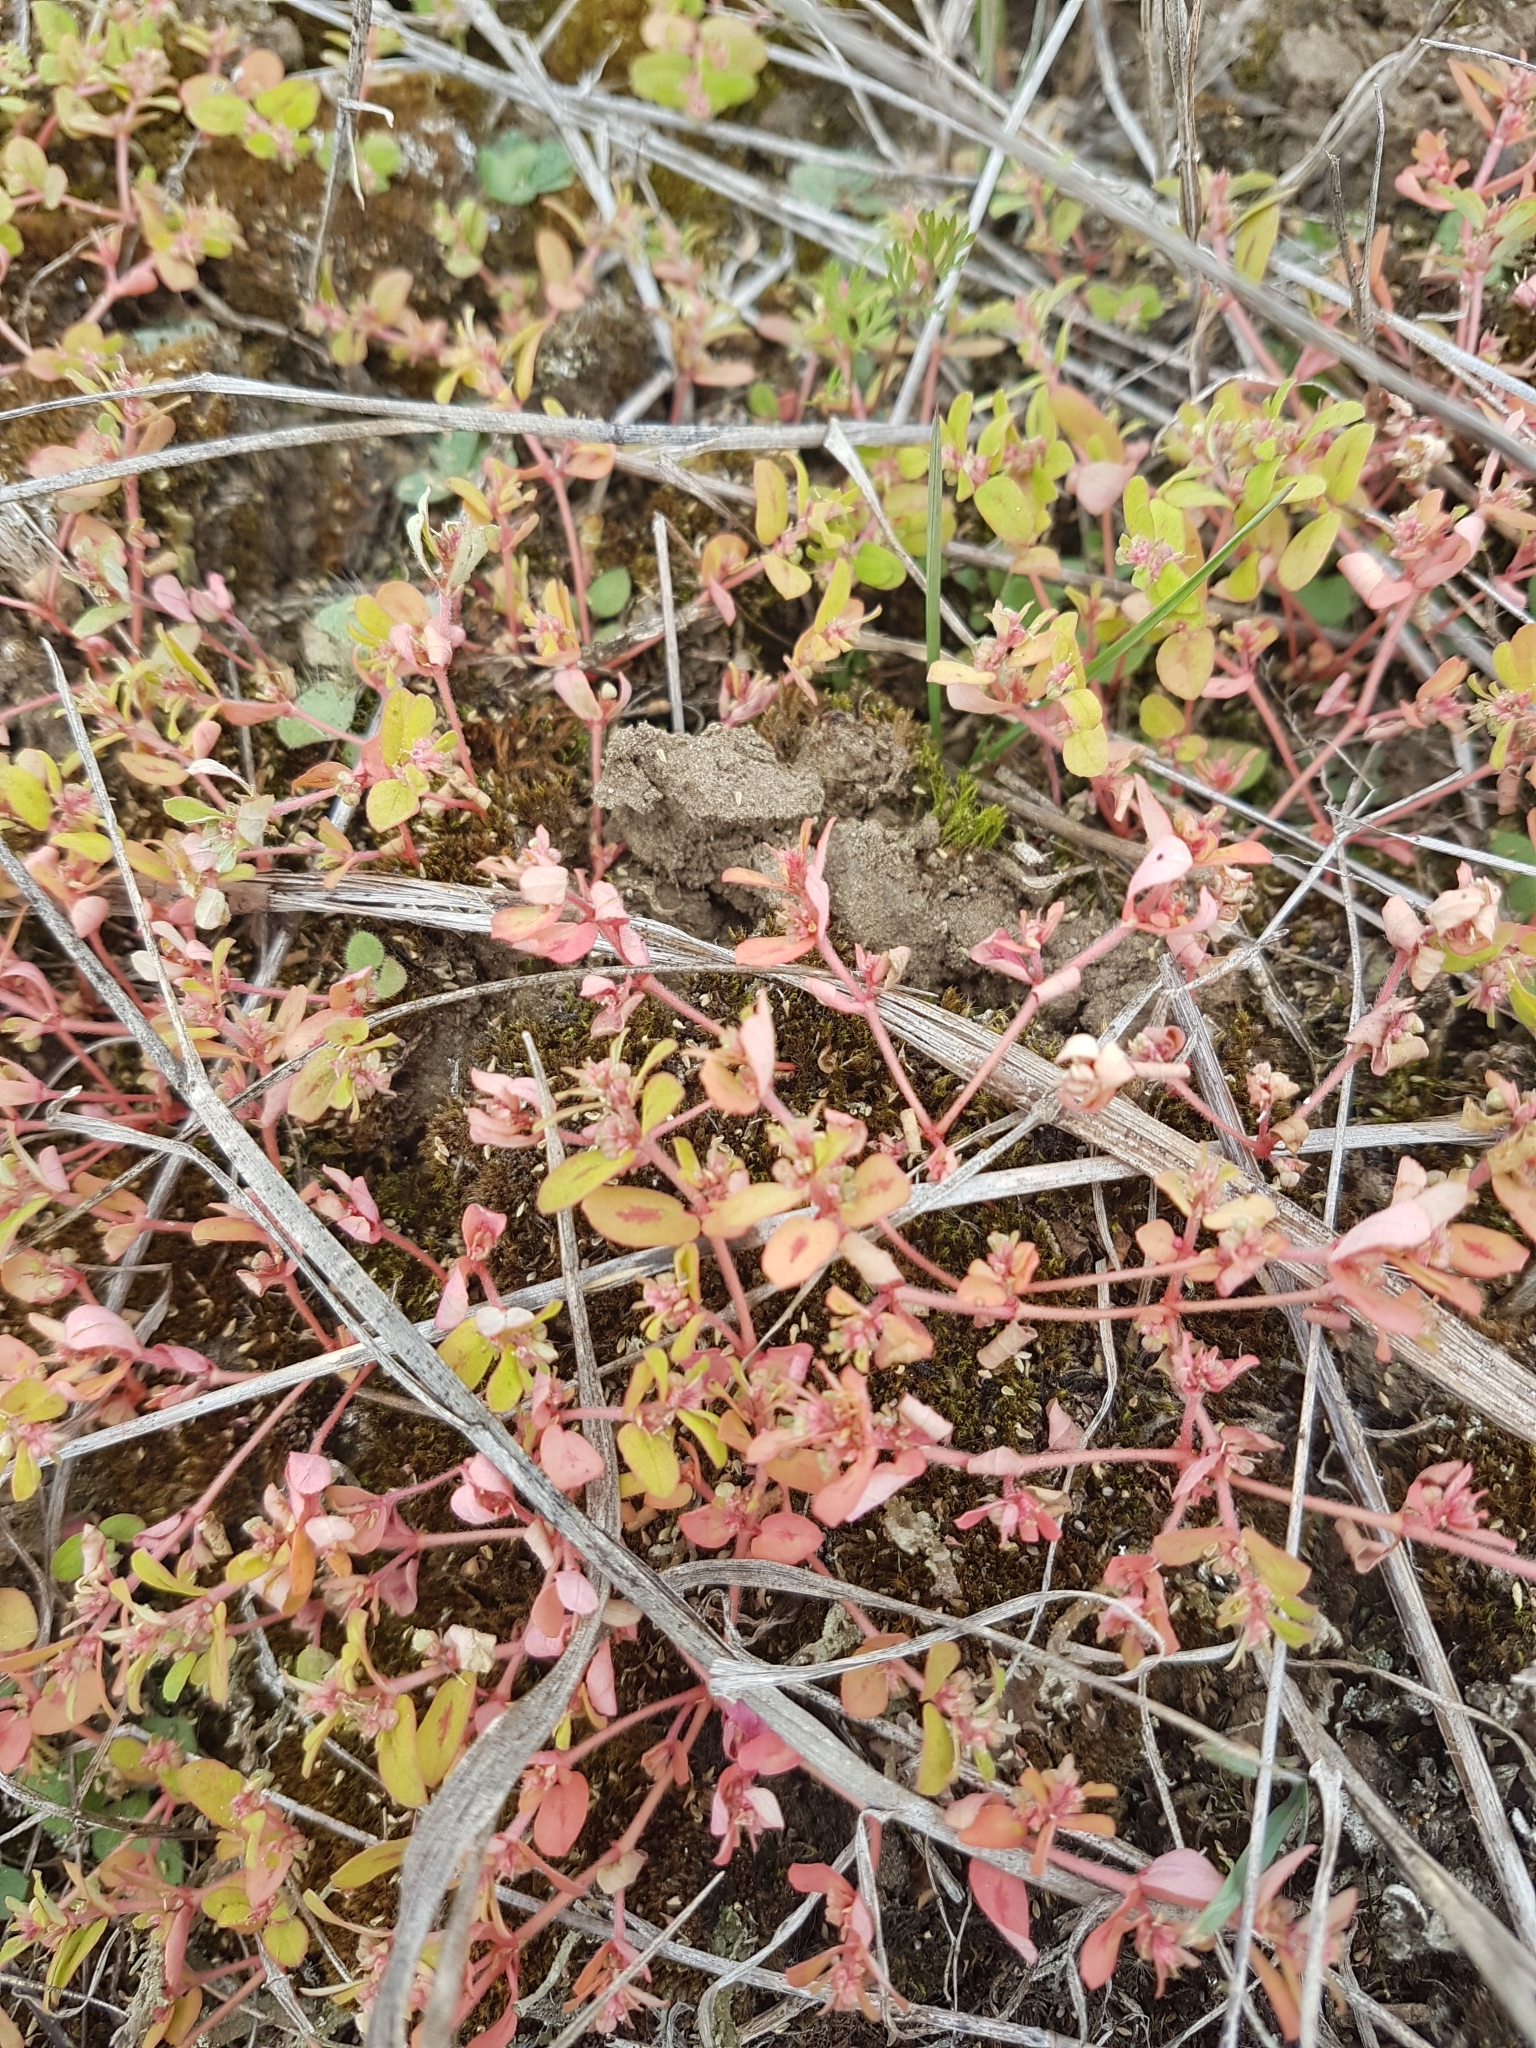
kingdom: Plantae
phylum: Tracheophyta
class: Magnoliopsida
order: Malpighiales
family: Euphorbiaceae
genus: Euphorbia
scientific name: Euphorbia maculata
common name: Spotted spurge
